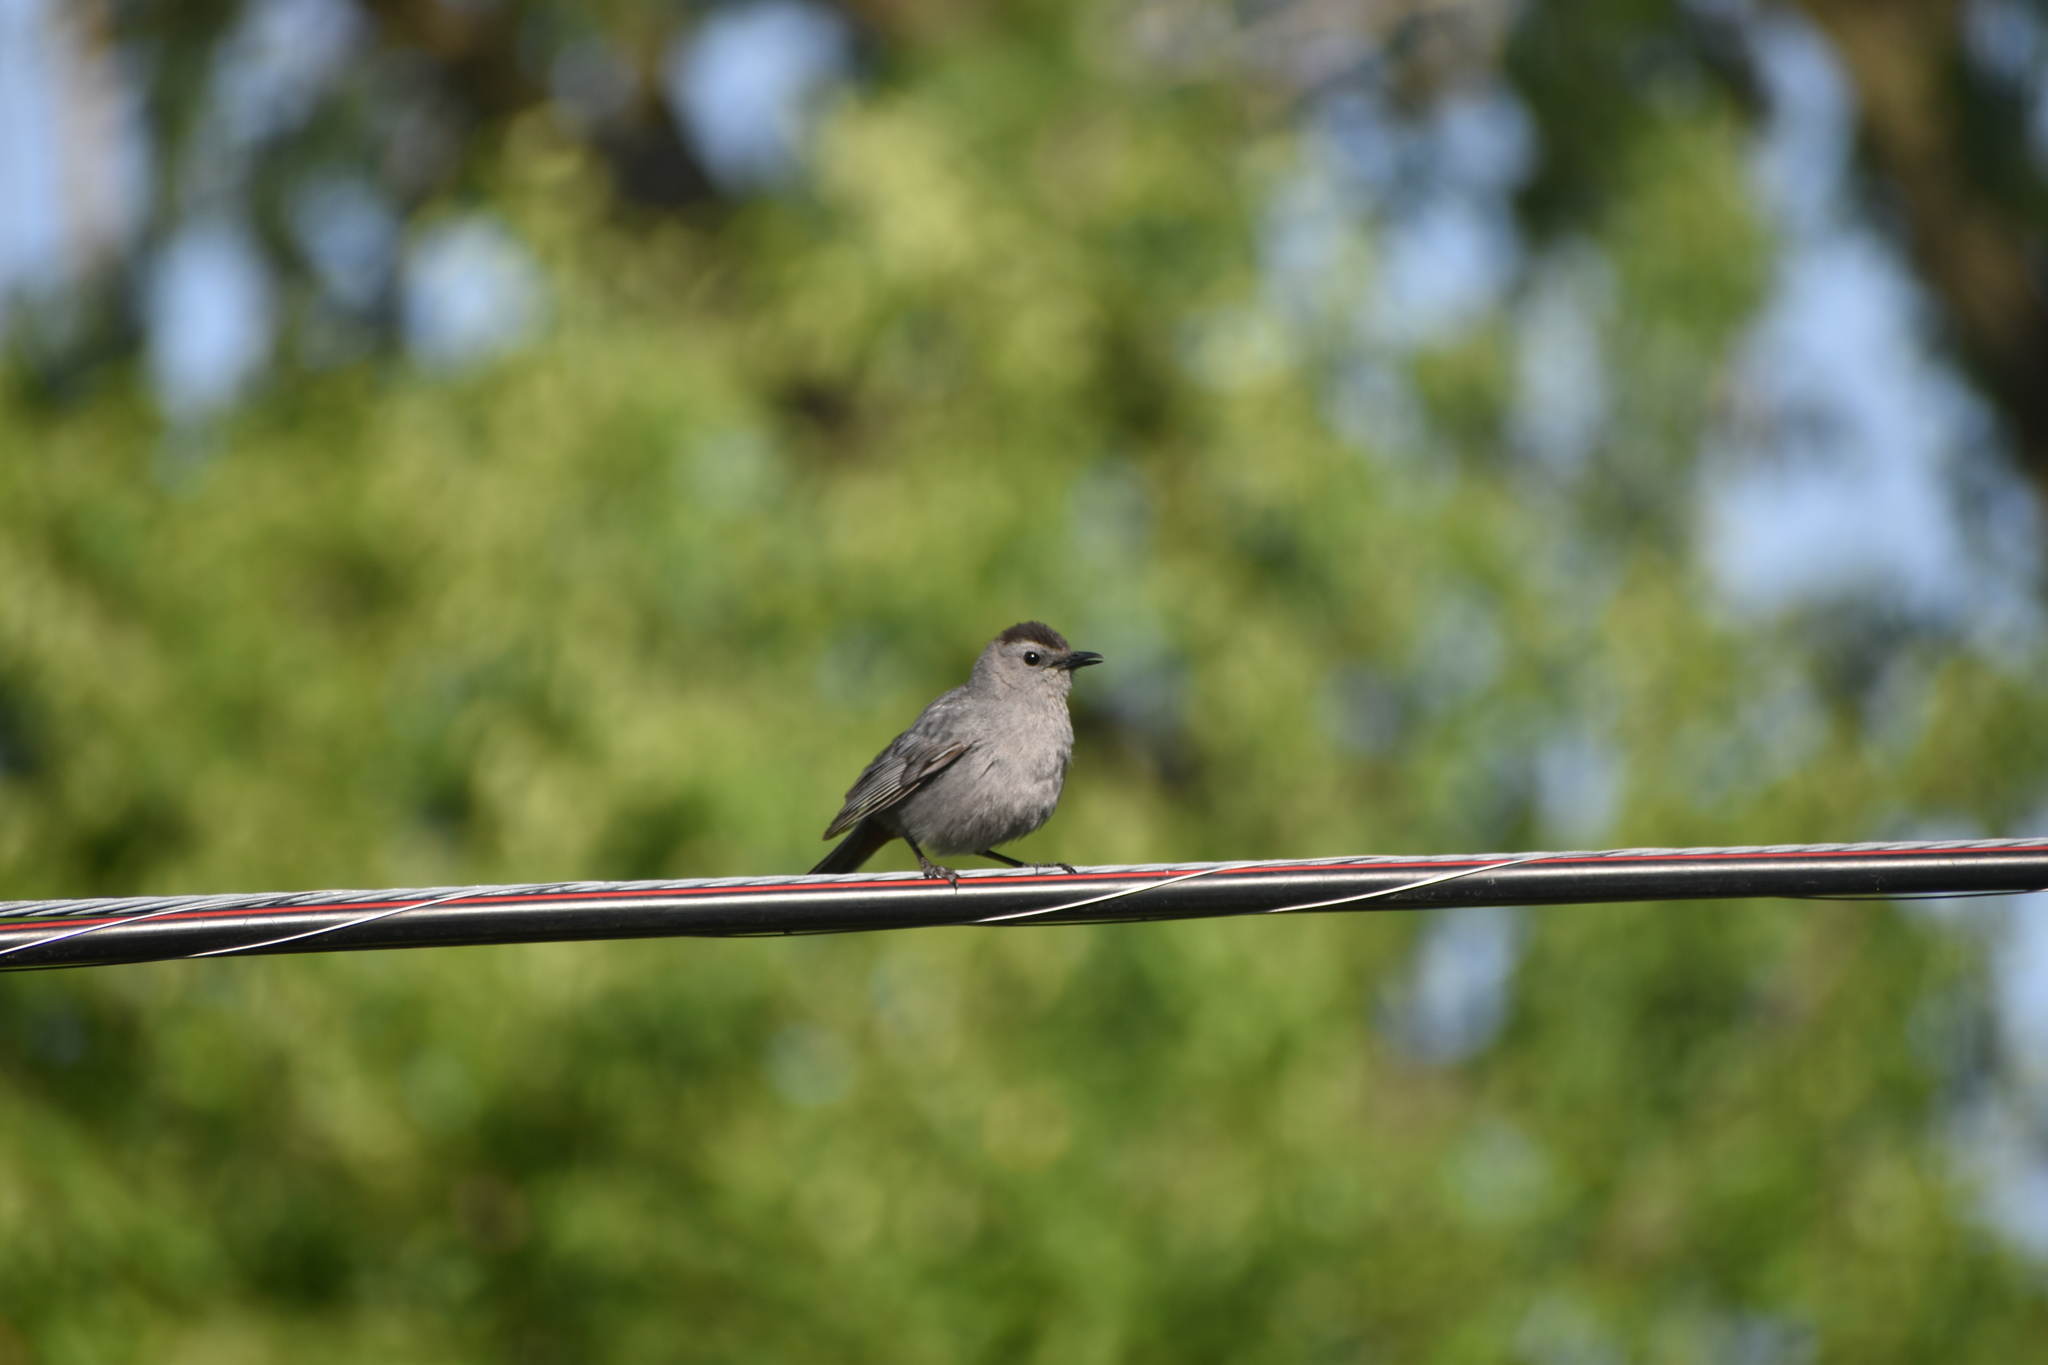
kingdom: Animalia
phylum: Chordata
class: Aves
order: Passeriformes
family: Mimidae
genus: Dumetella
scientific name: Dumetella carolinensis
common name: Gray catbird
